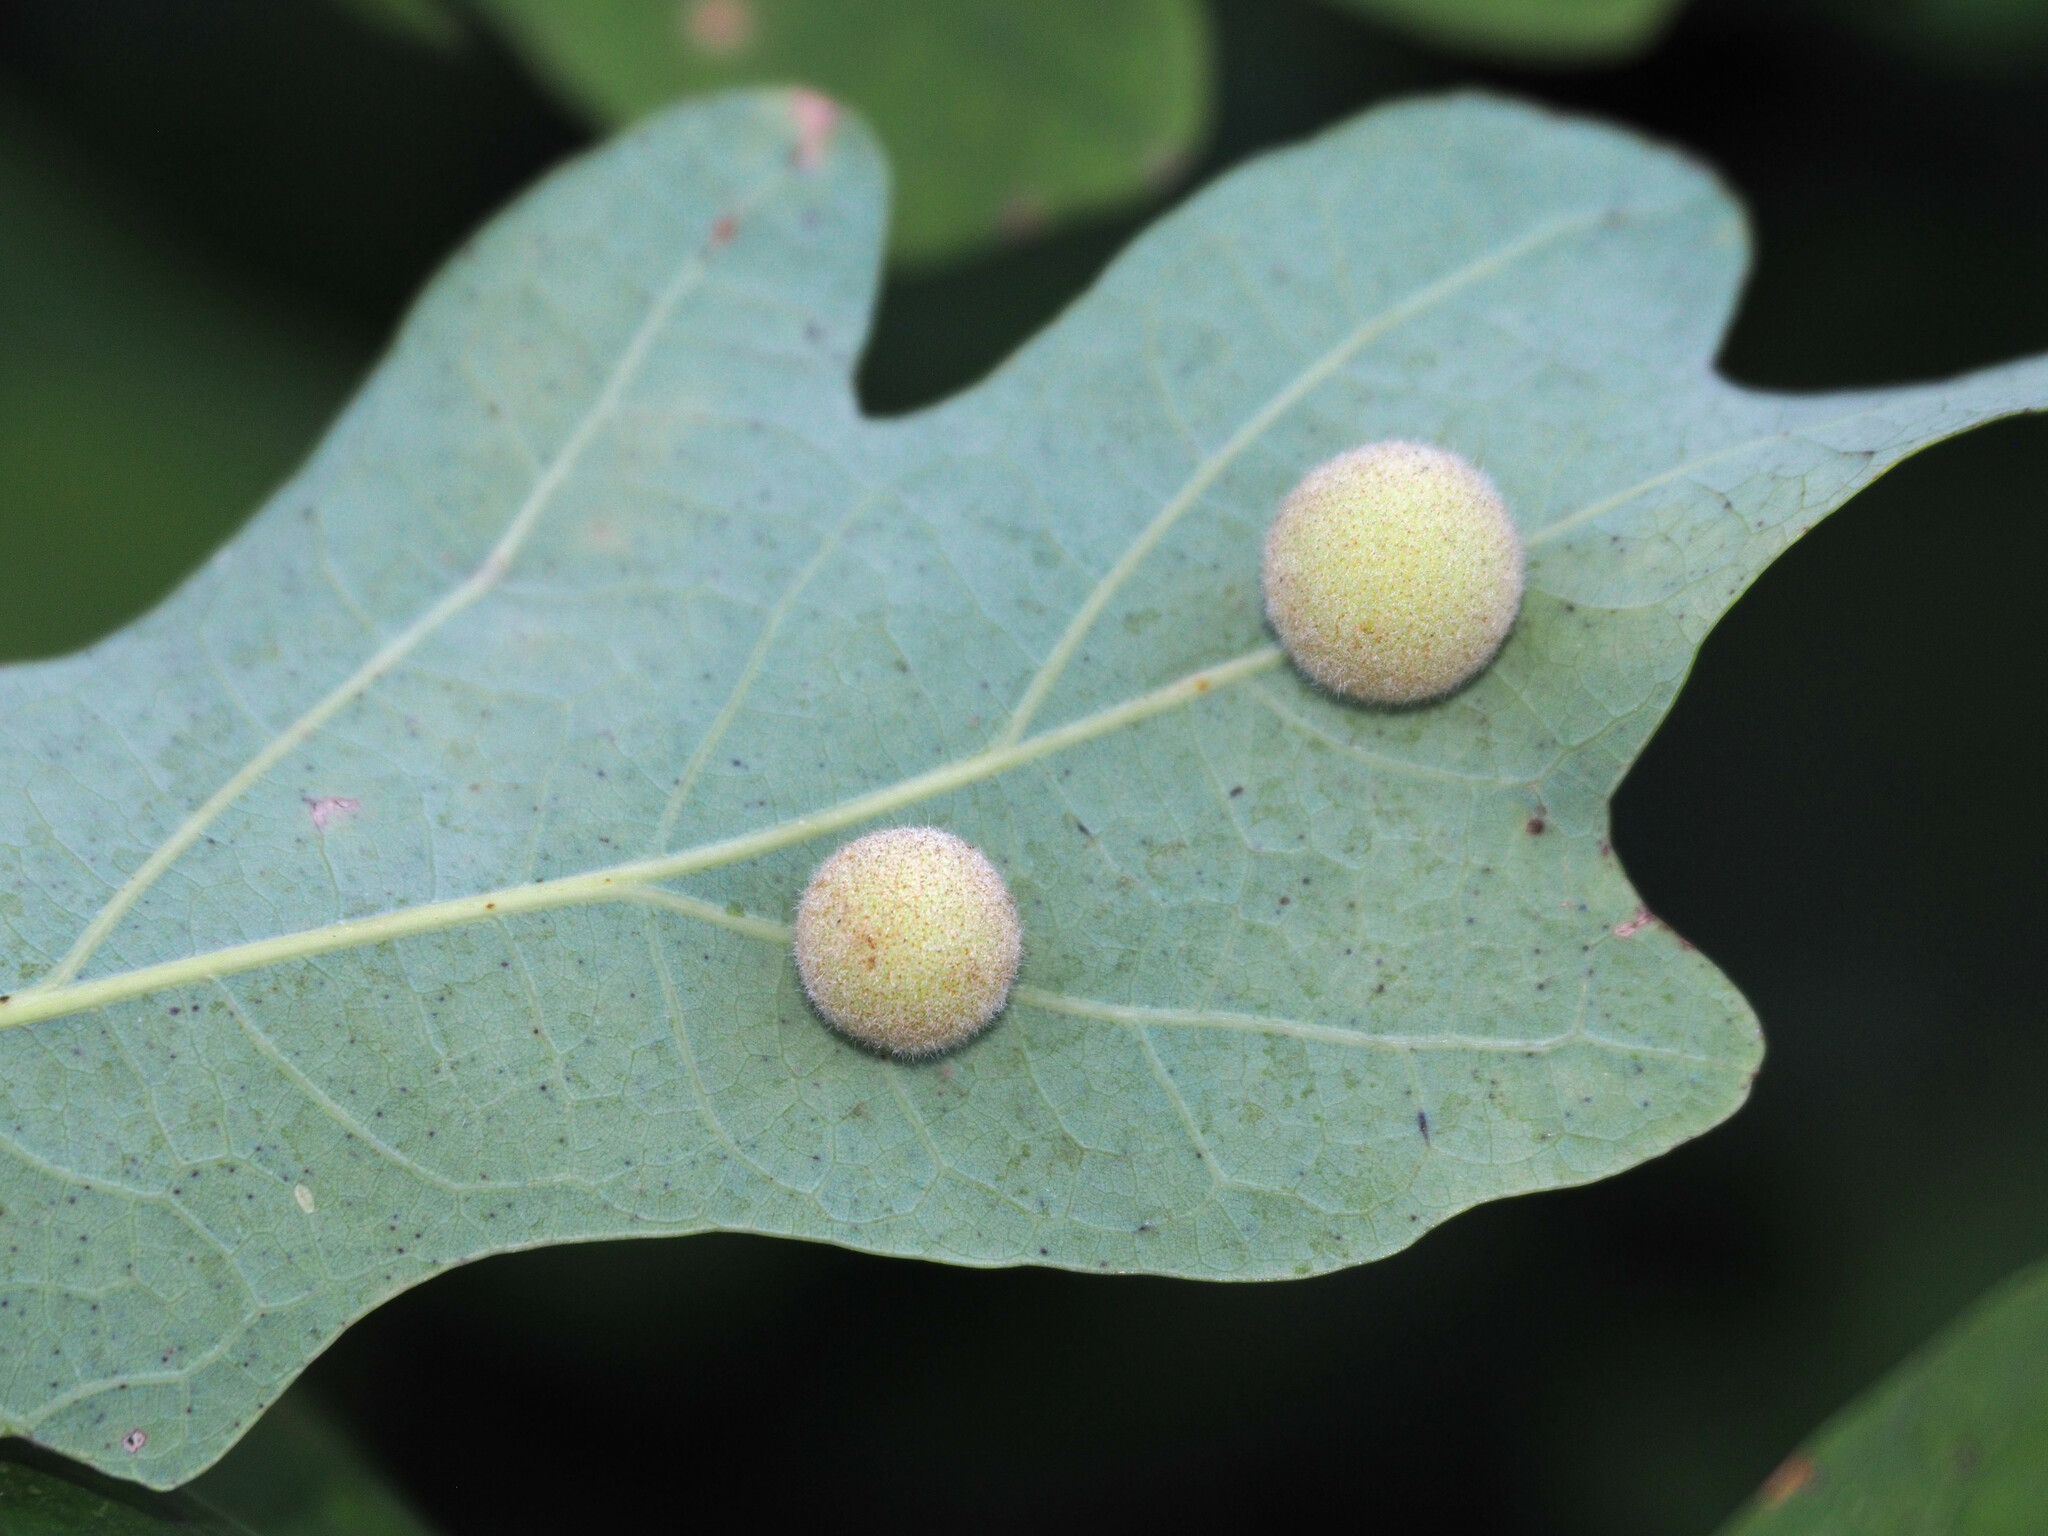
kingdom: Animalia
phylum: Arthropoda
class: Insecta
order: Hymenoptera
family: Cynipidae
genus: Philonix
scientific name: Philonix fulvicollis
